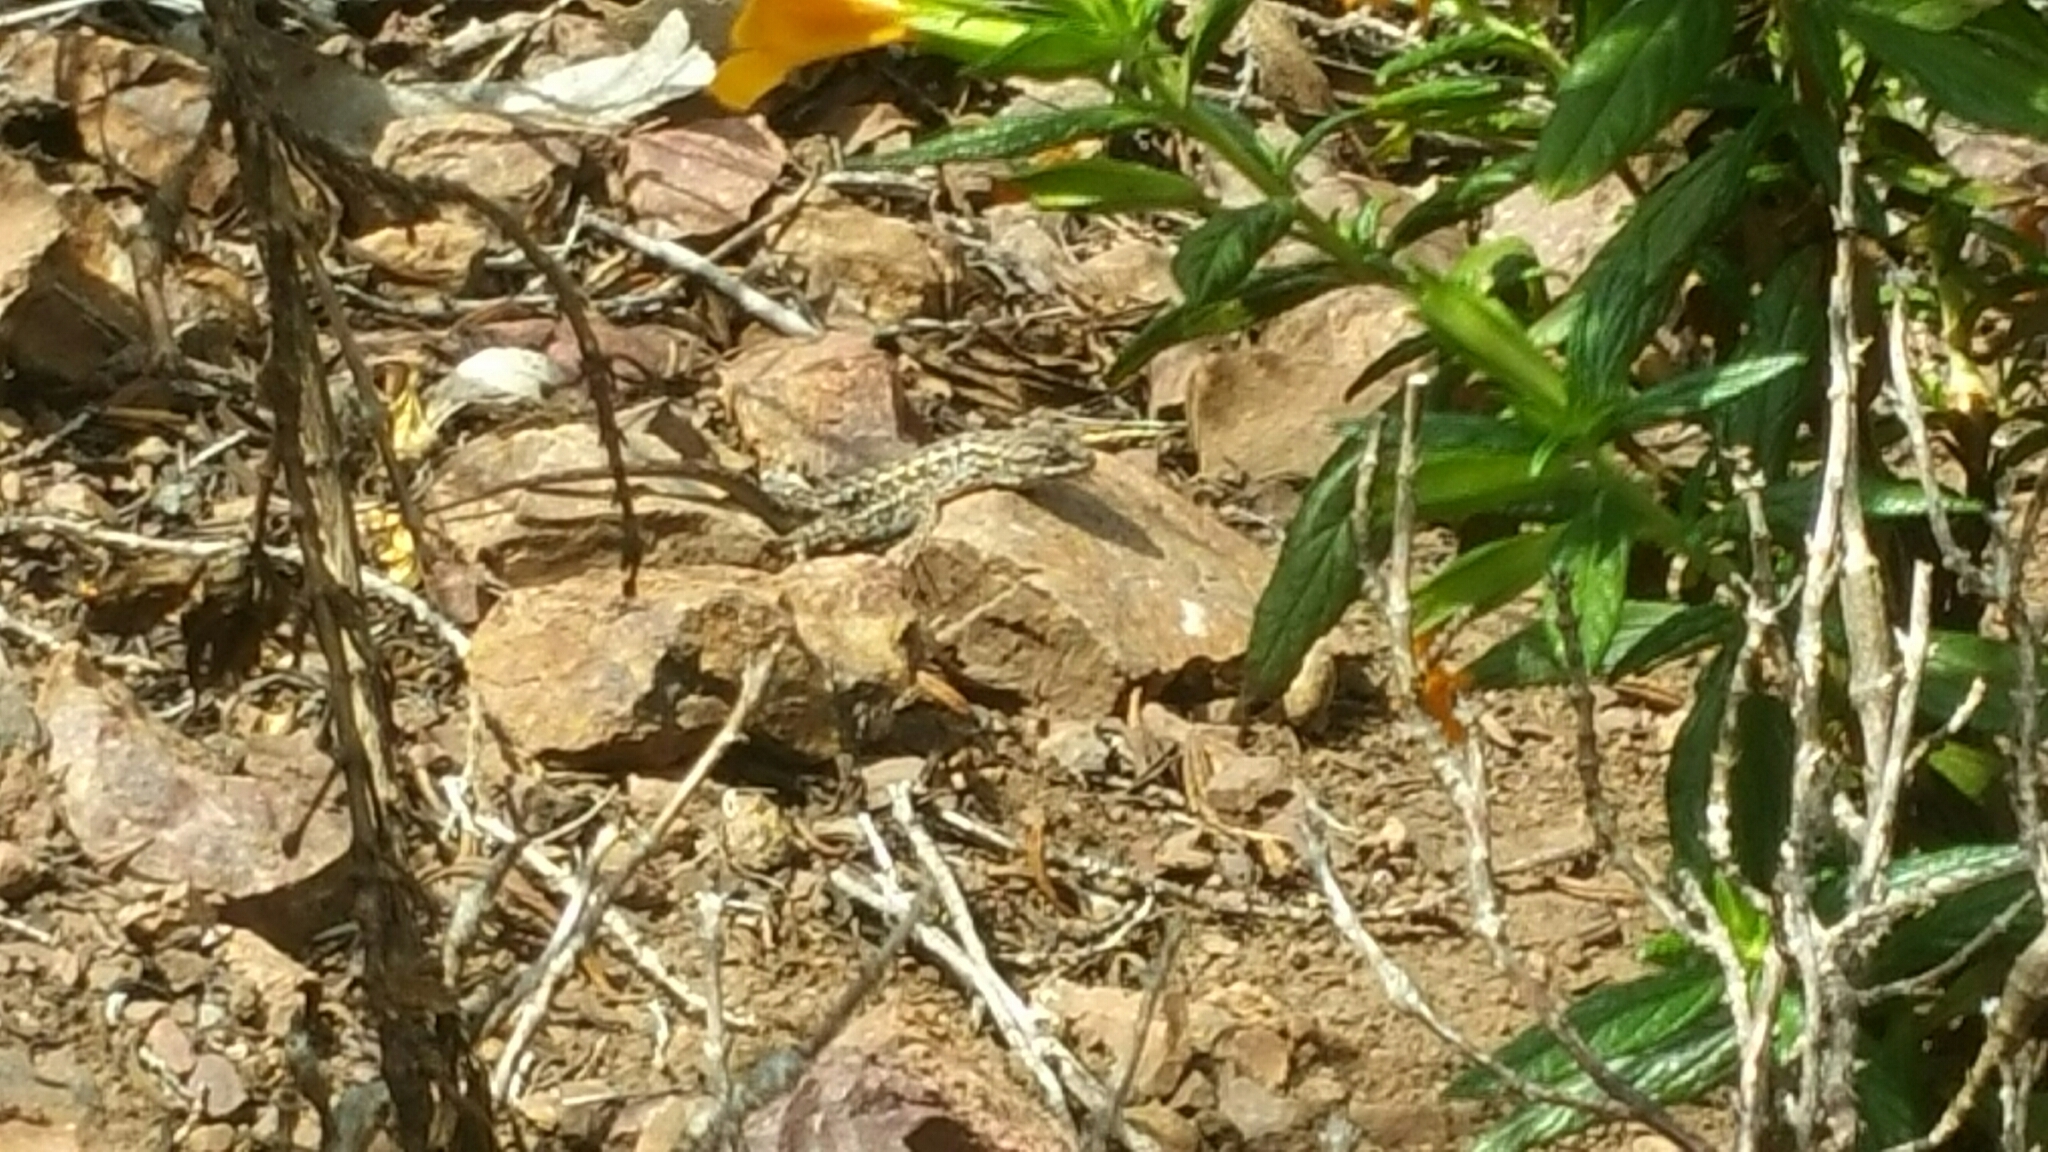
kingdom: Animalia
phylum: Chordata
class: Squamata
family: Phrynosomatidae
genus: Sceloporus
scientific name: Sceloporus occidentalis
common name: Western fence lizard
